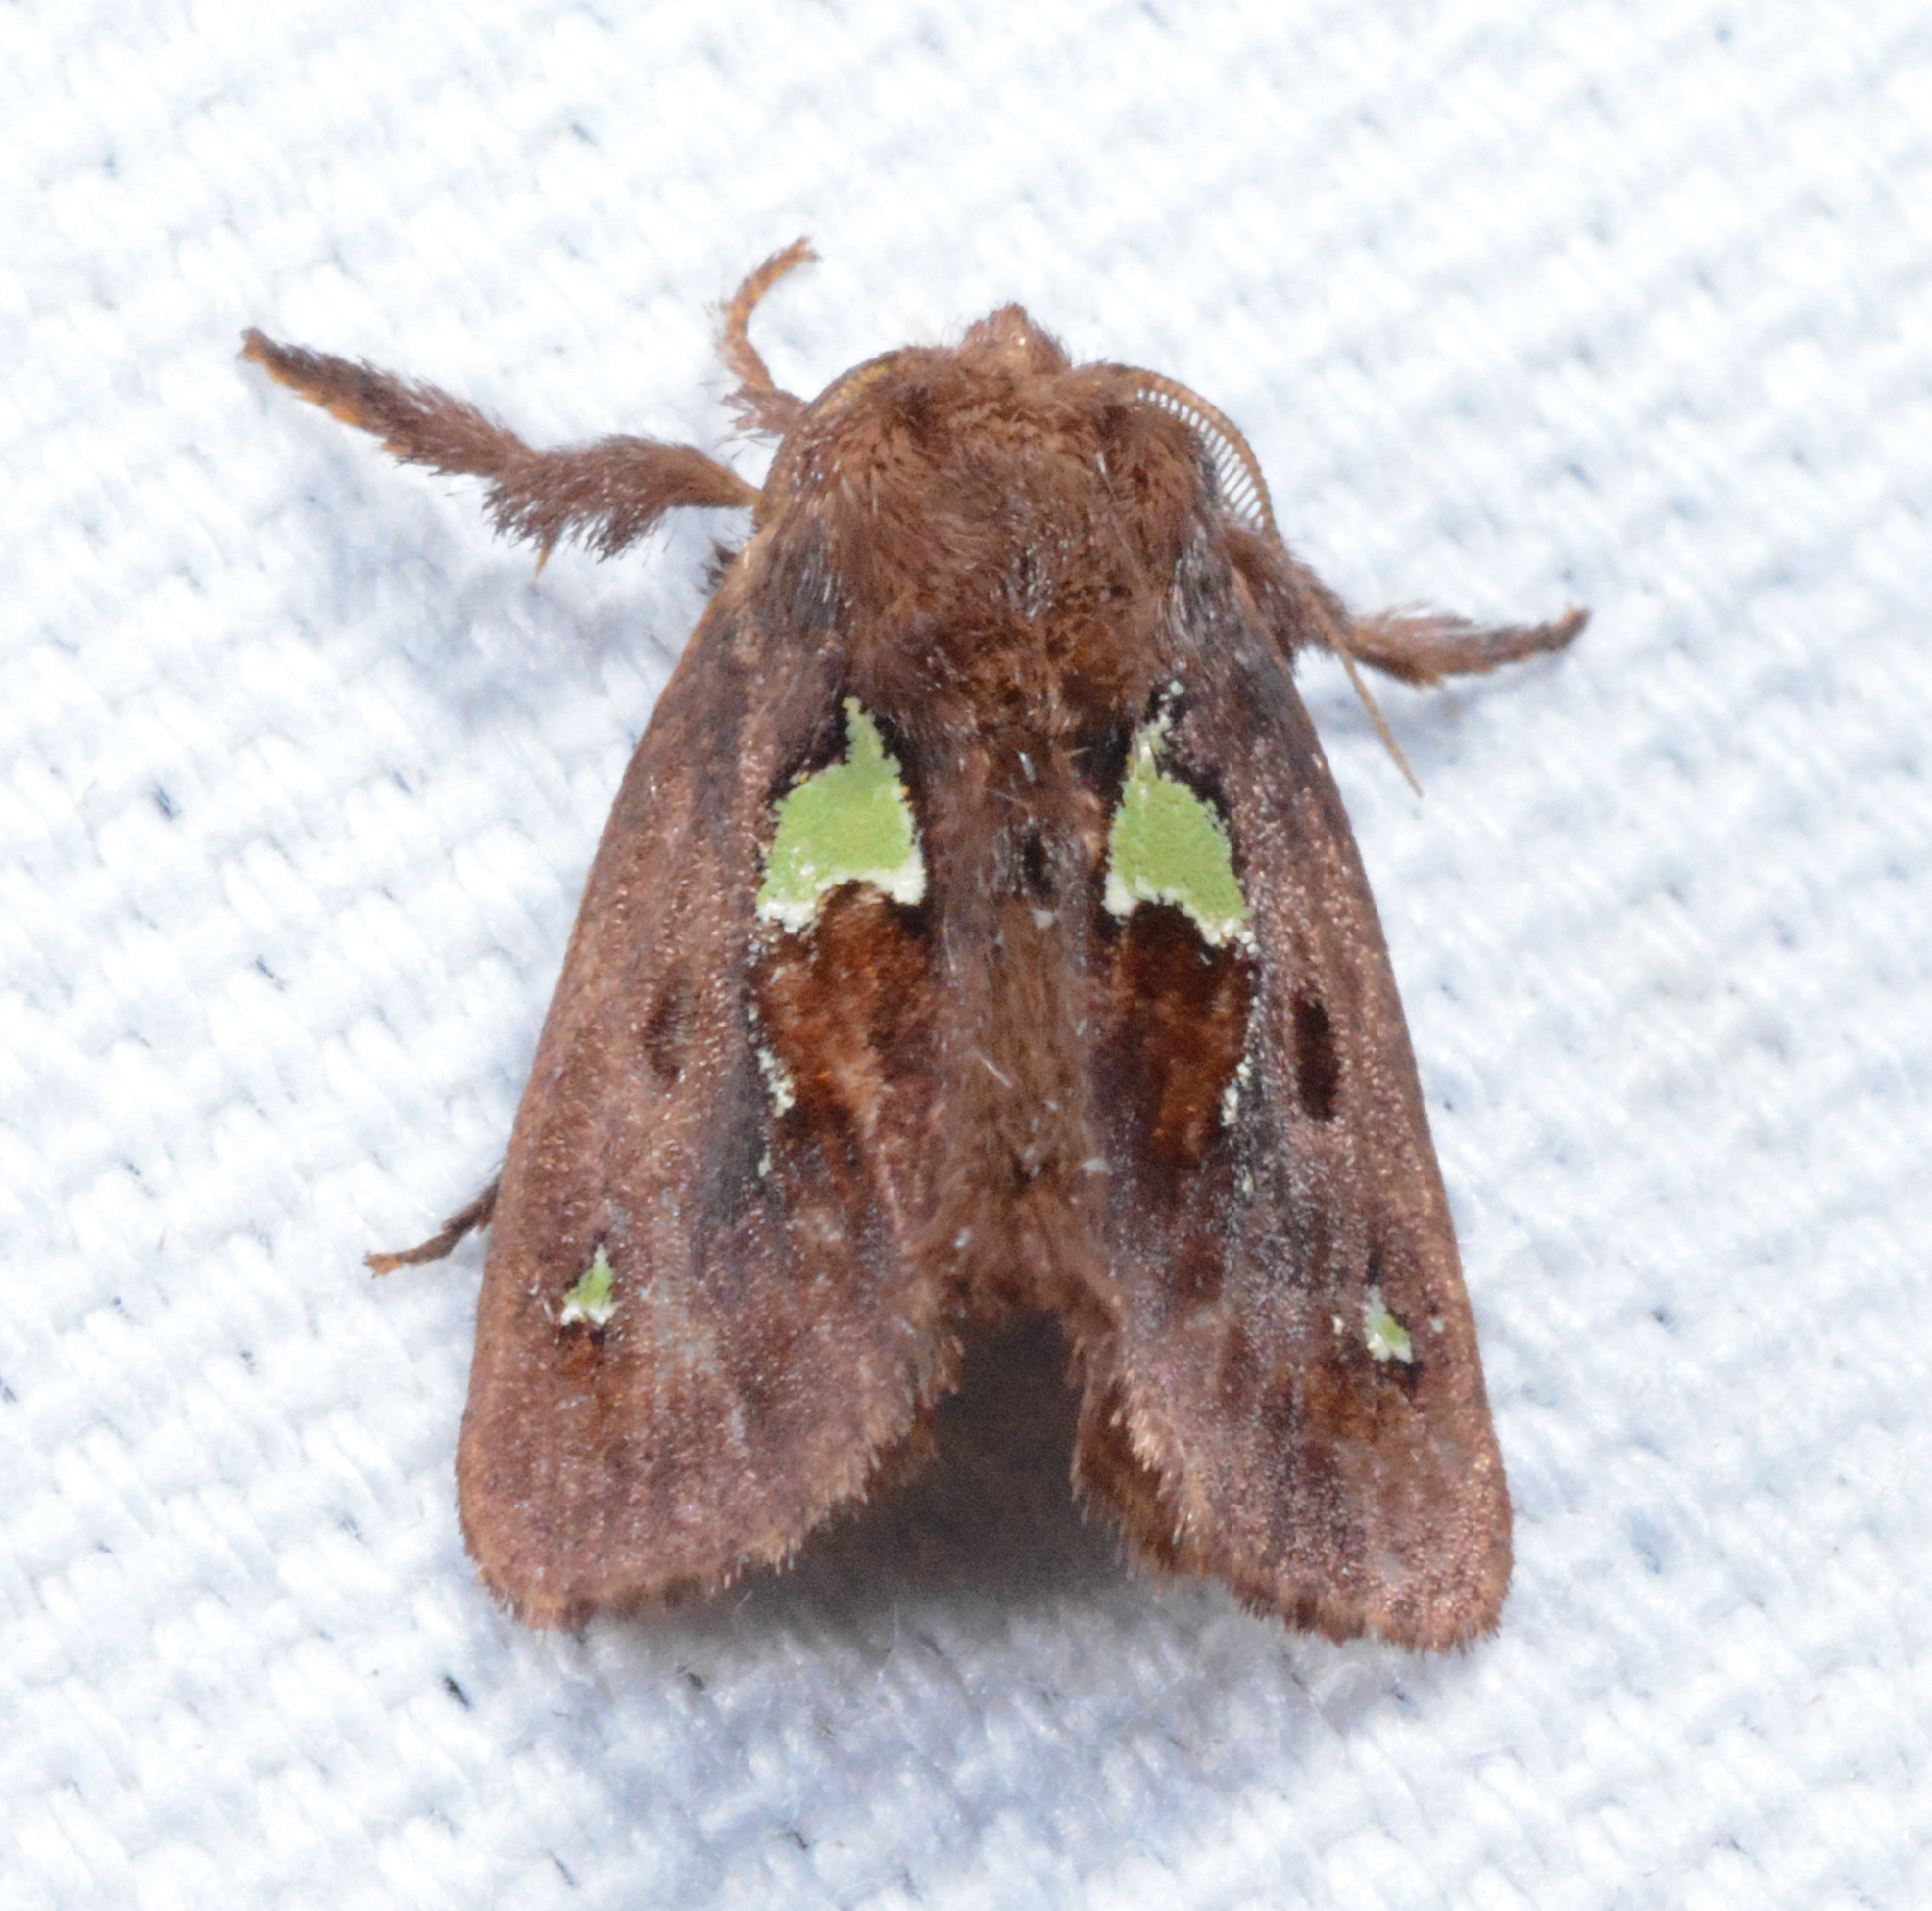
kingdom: Animalia
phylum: Arthropoda
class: Insecta
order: Lepidoptera
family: Limacodidae
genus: Euclea
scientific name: Euclea delphinii
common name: Spiny oak-slug moth
